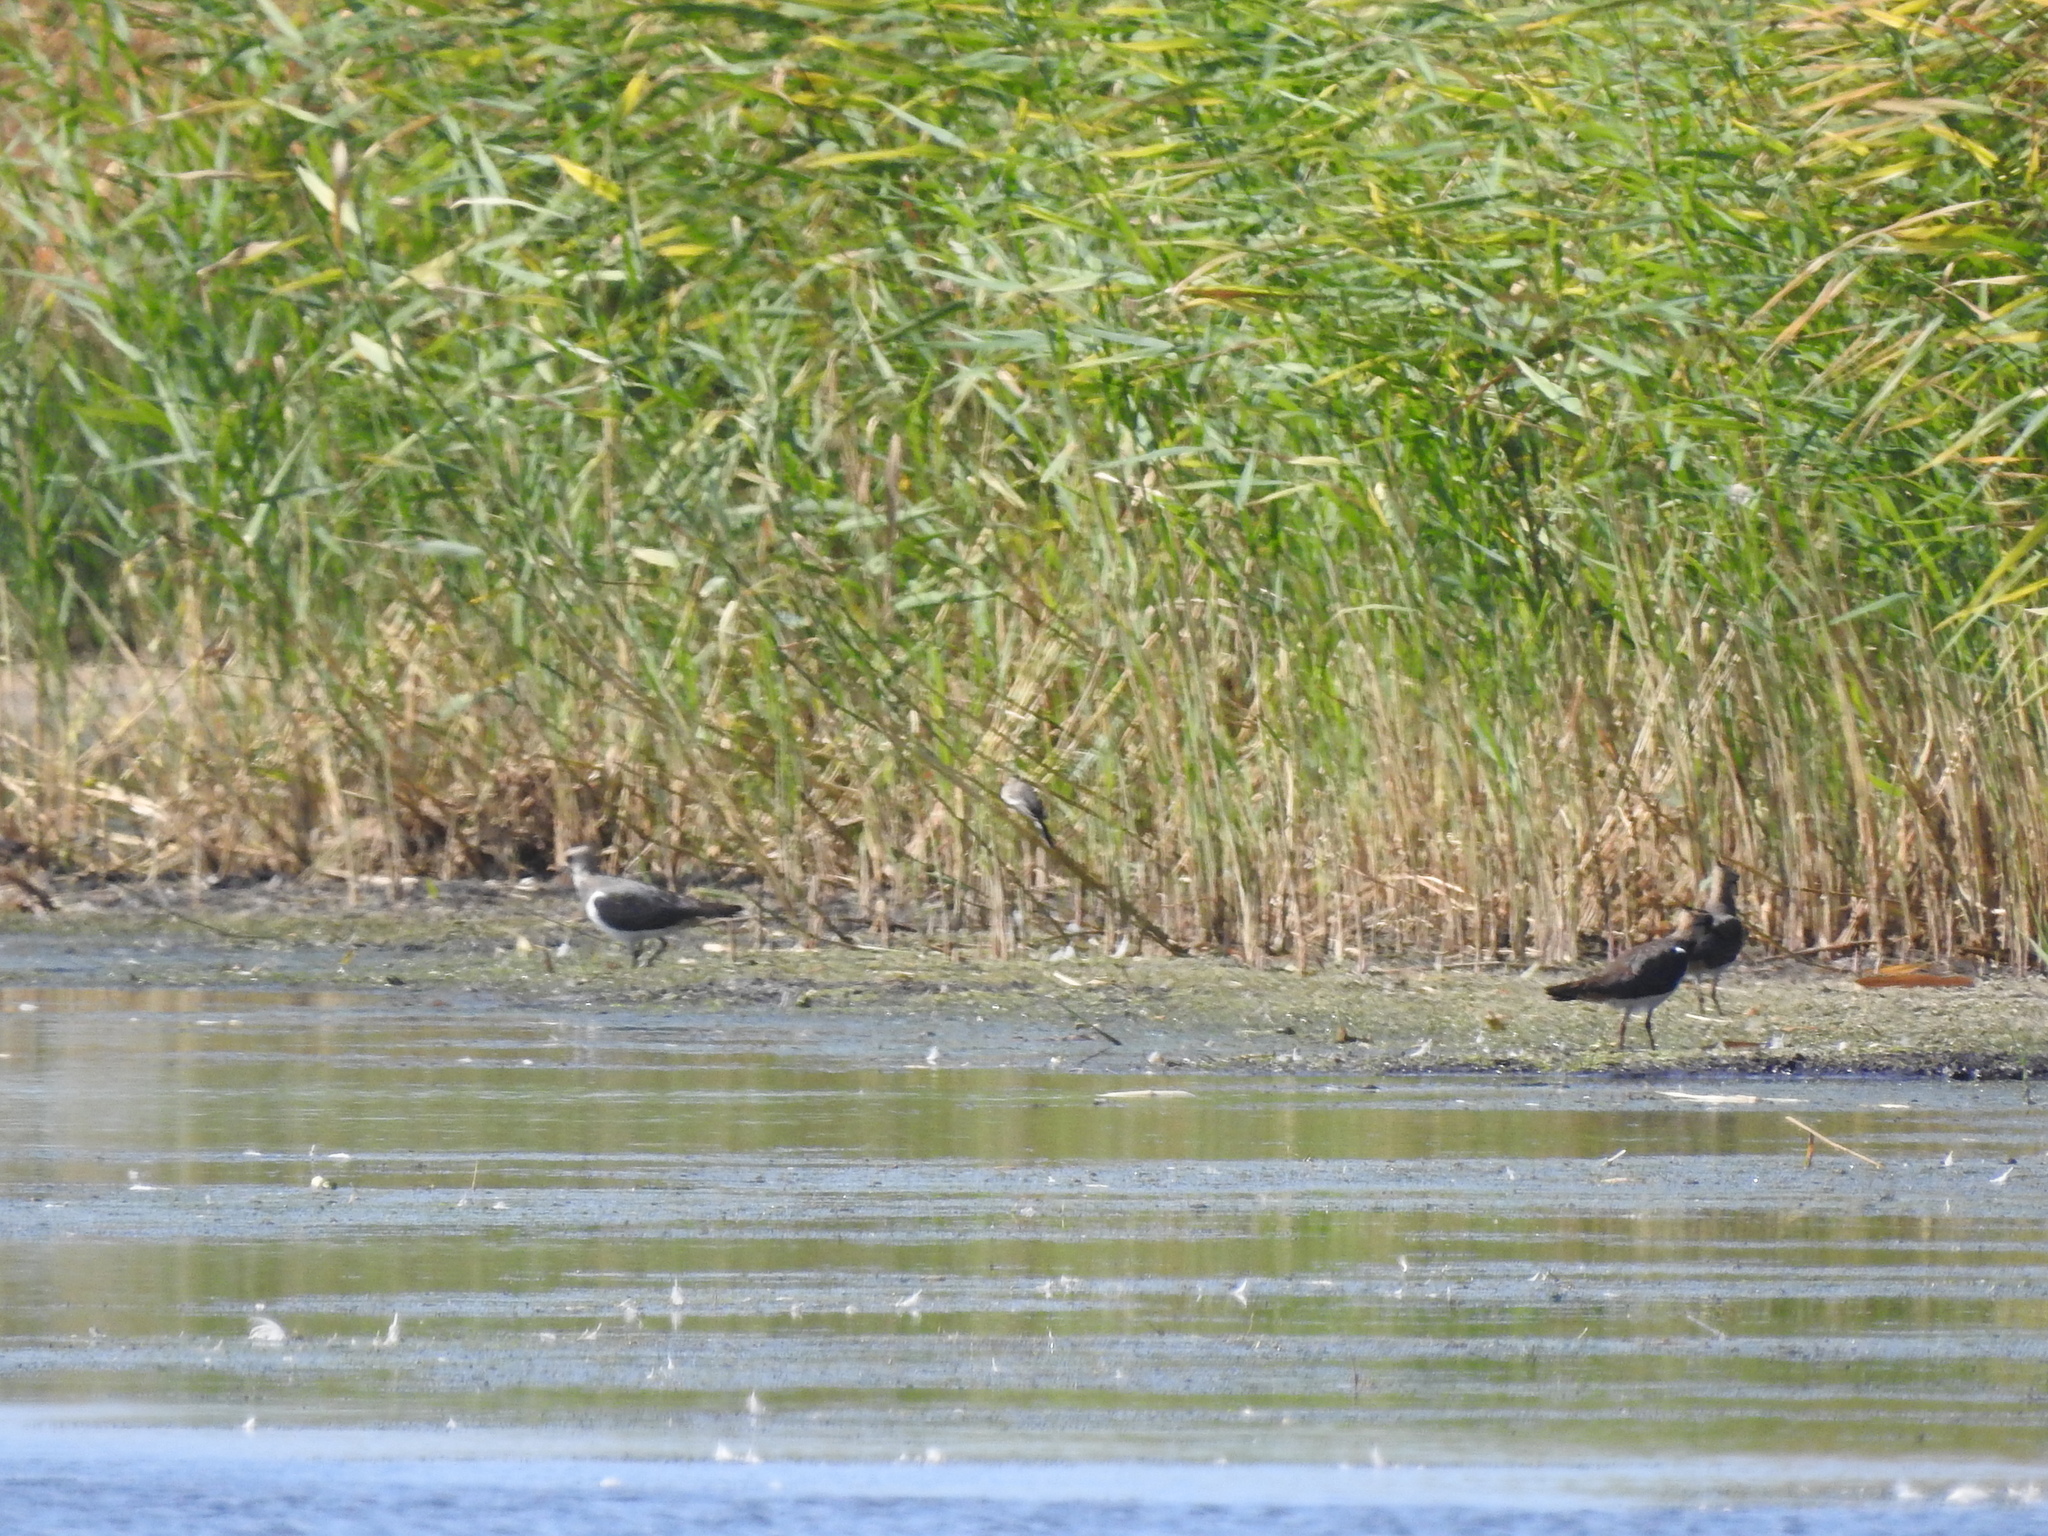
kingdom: Animalia
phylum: Chordata
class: Aves
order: Charadriiformes
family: Charadriidae
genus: Vanellus
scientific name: Vanellus vanellus
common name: Northern lapwing
